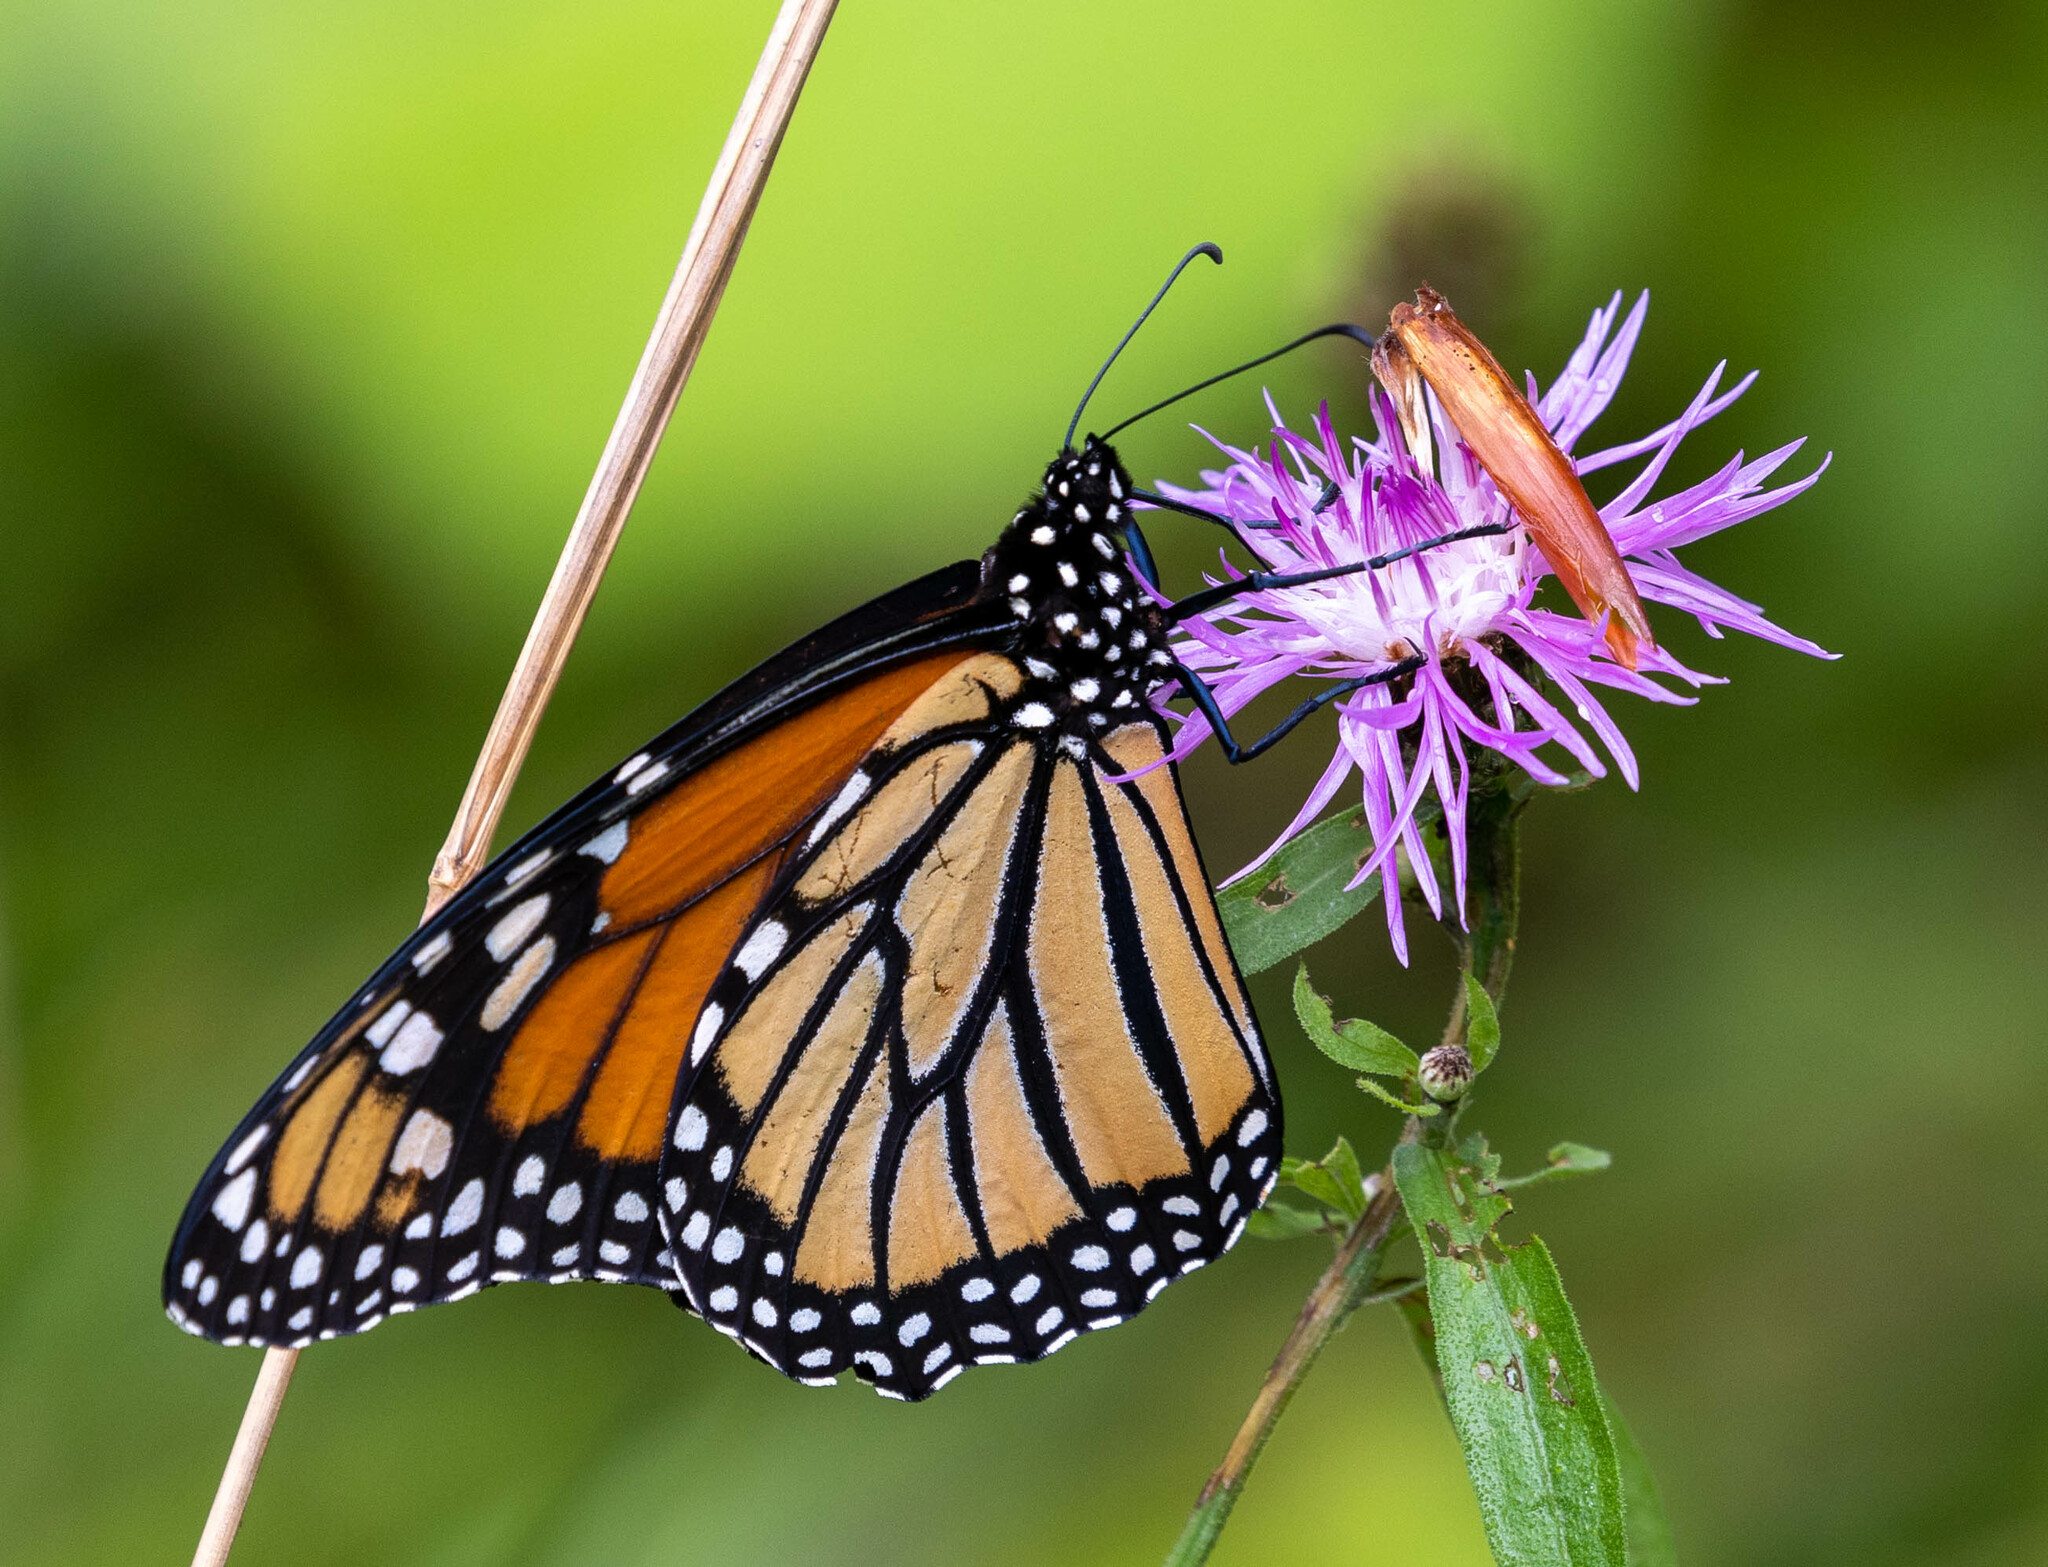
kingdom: Animalia
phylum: Arthropoda
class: Insecta
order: Lepidoptera
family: Nymphalidae
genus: Danaus
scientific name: Danaus plexippus
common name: Monarch
